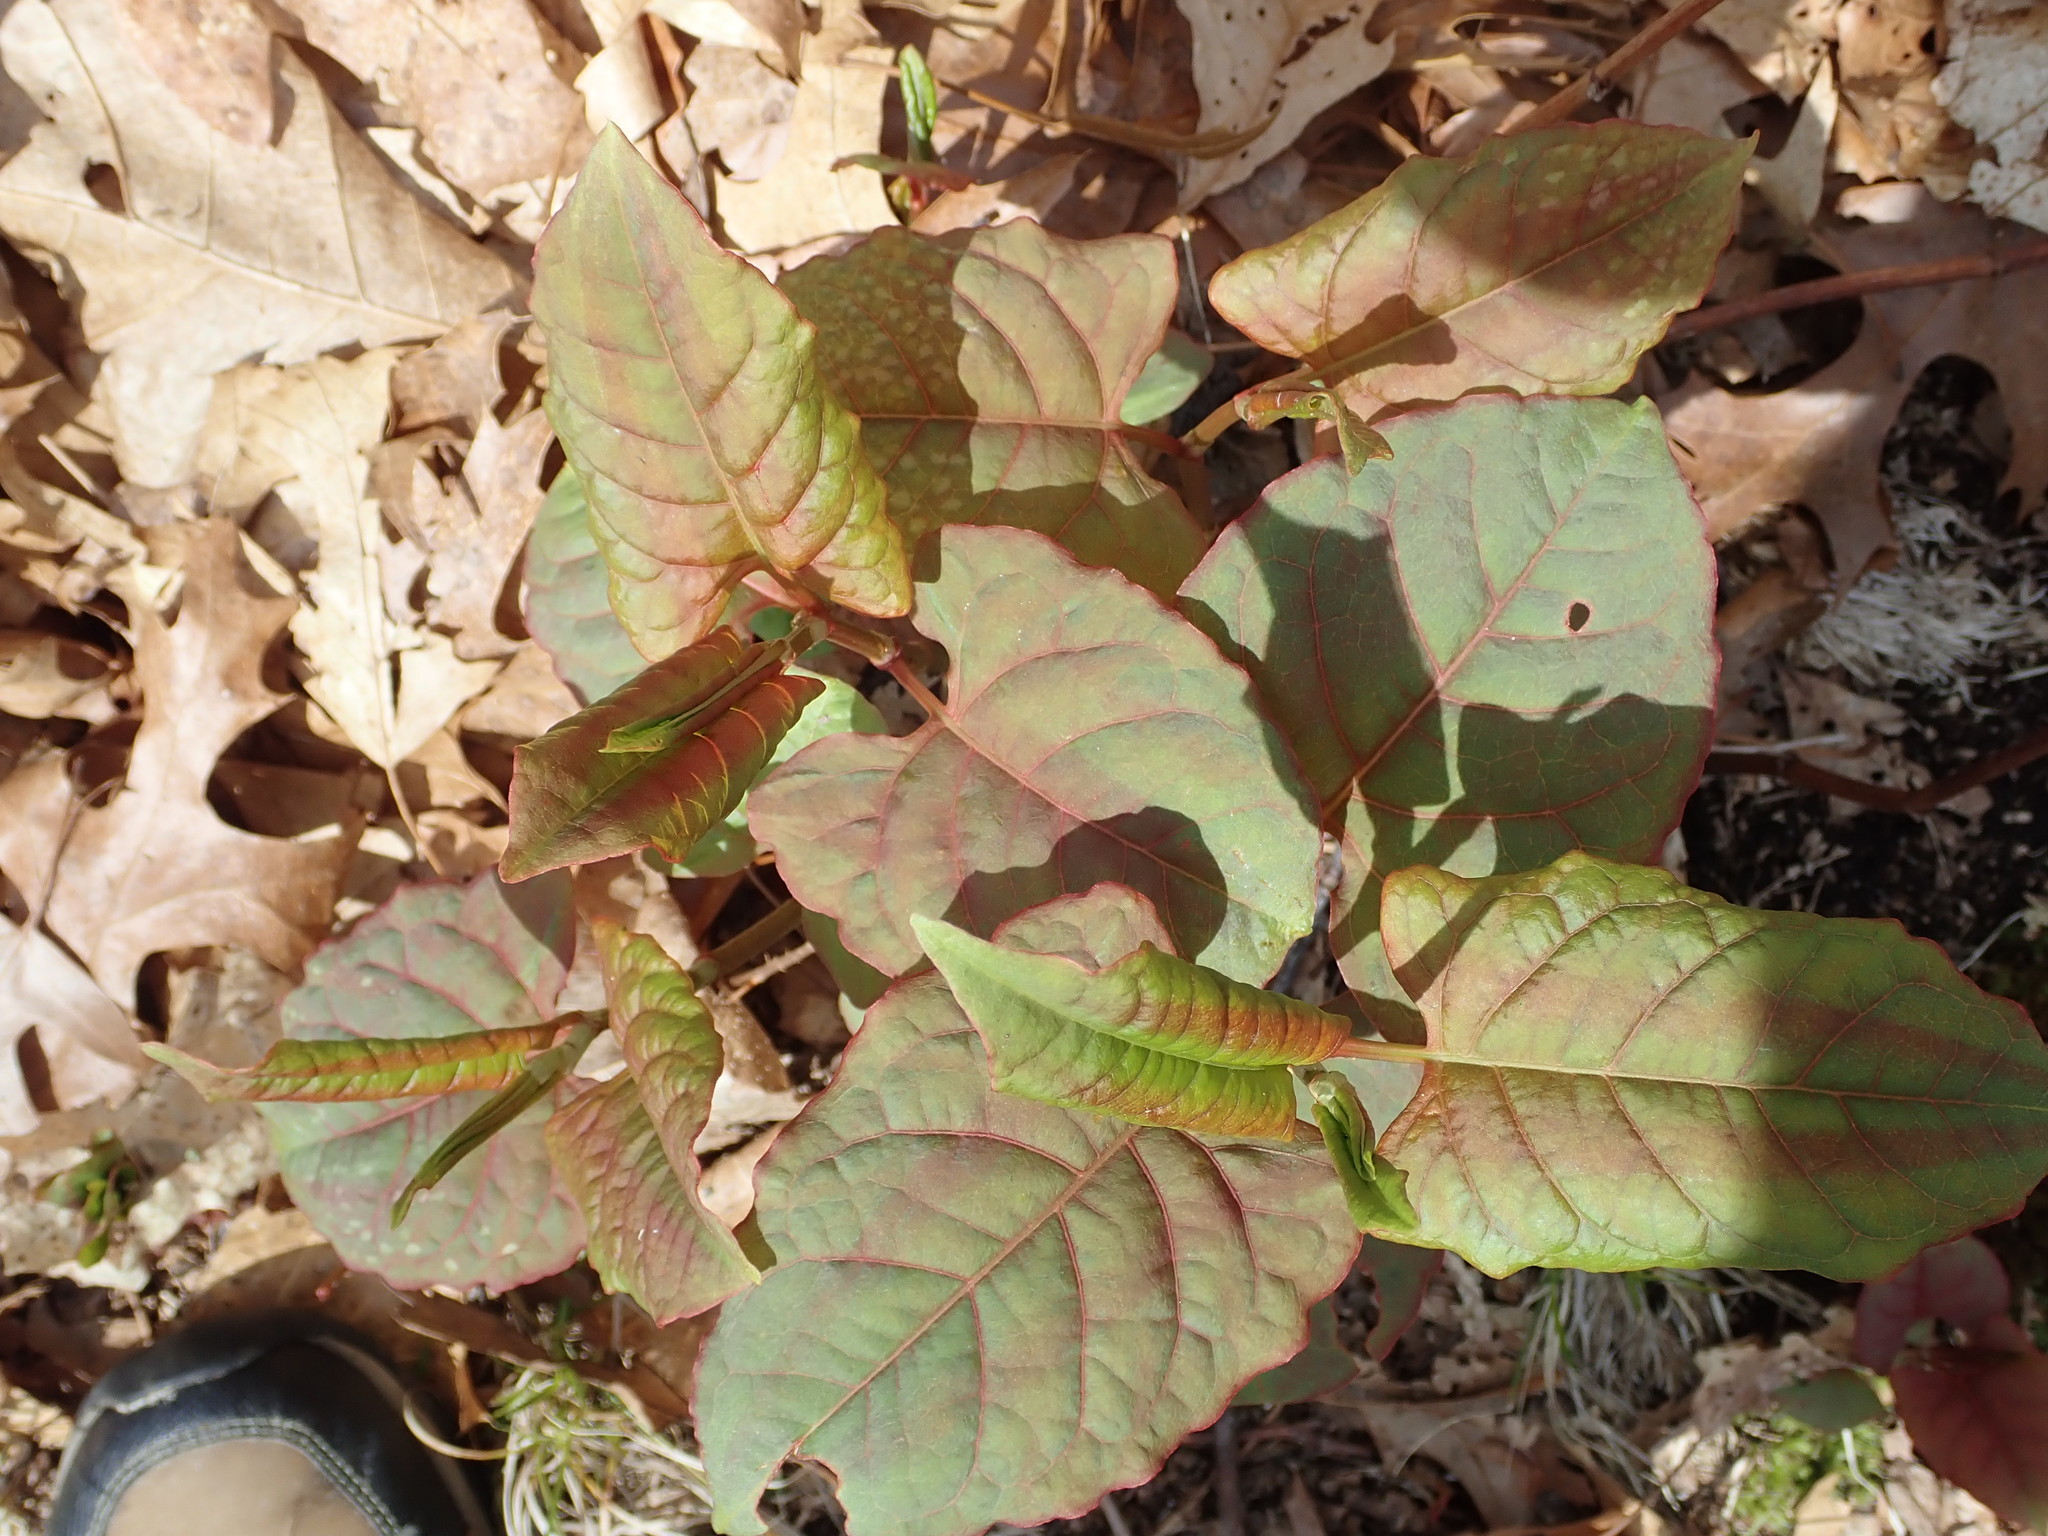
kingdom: Plantae
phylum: Tracheophyta
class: Magnoliopsida
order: Caryophyllales
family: Polygonaceae
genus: Reynoutria
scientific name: Reynoutria japonica
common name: Japanese knotweed
